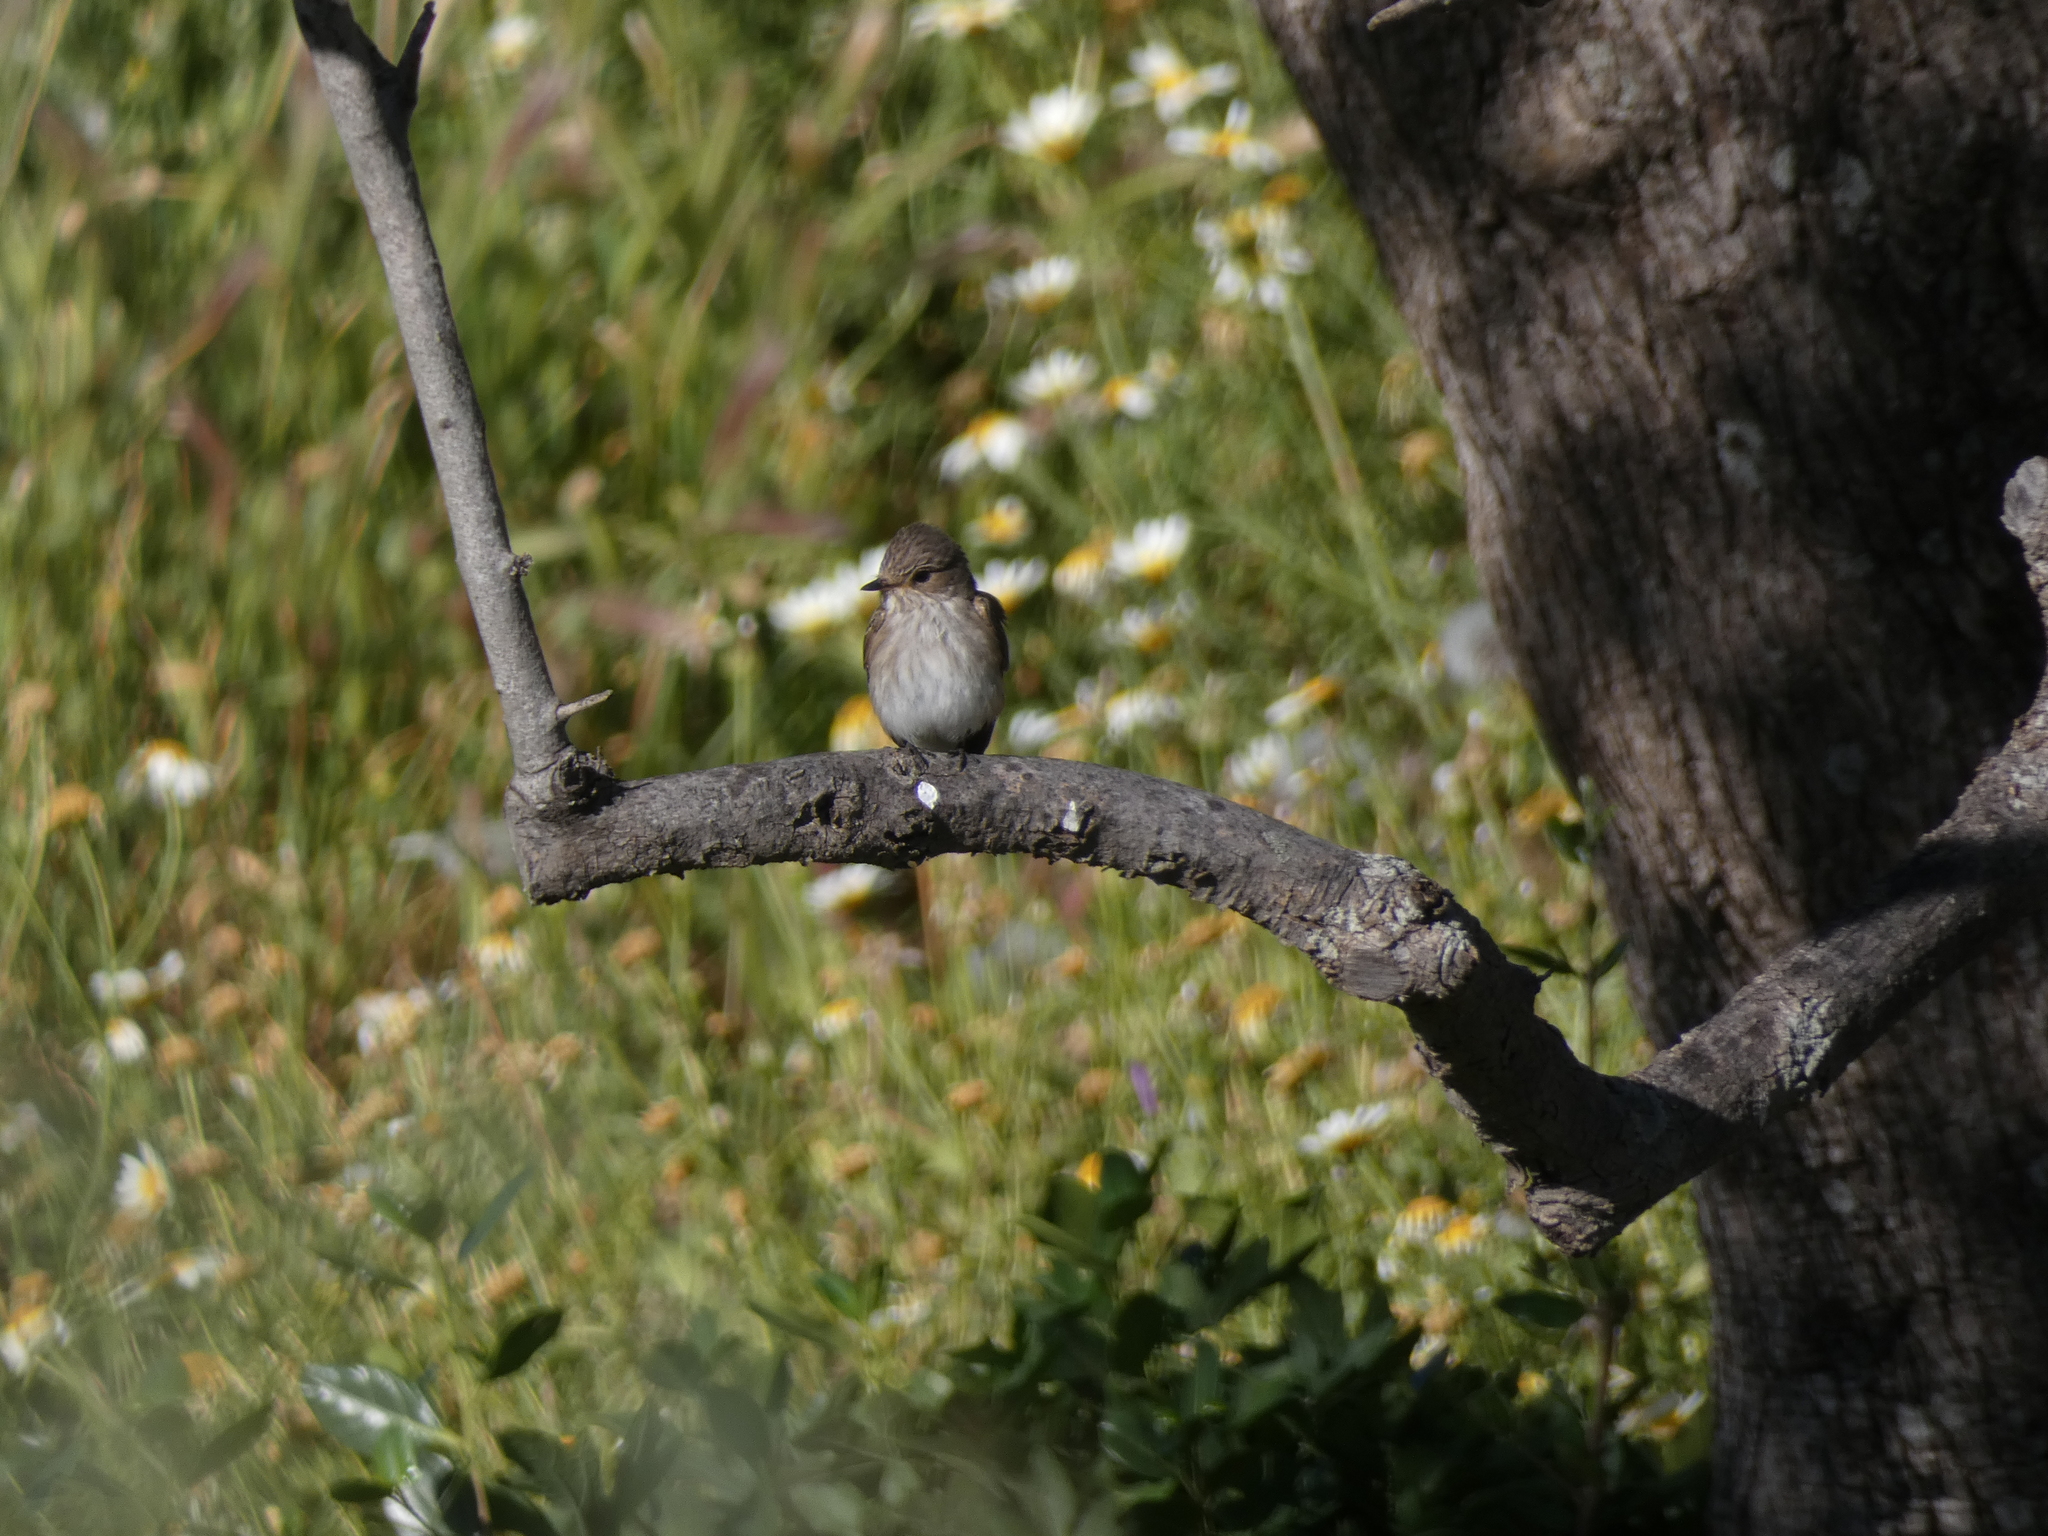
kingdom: Animalia
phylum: Chordata
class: Aves
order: Passeriformes
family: Muscicapidae
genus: Muscicapa
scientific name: Muscicapa striata
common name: Spotted flycatcher
